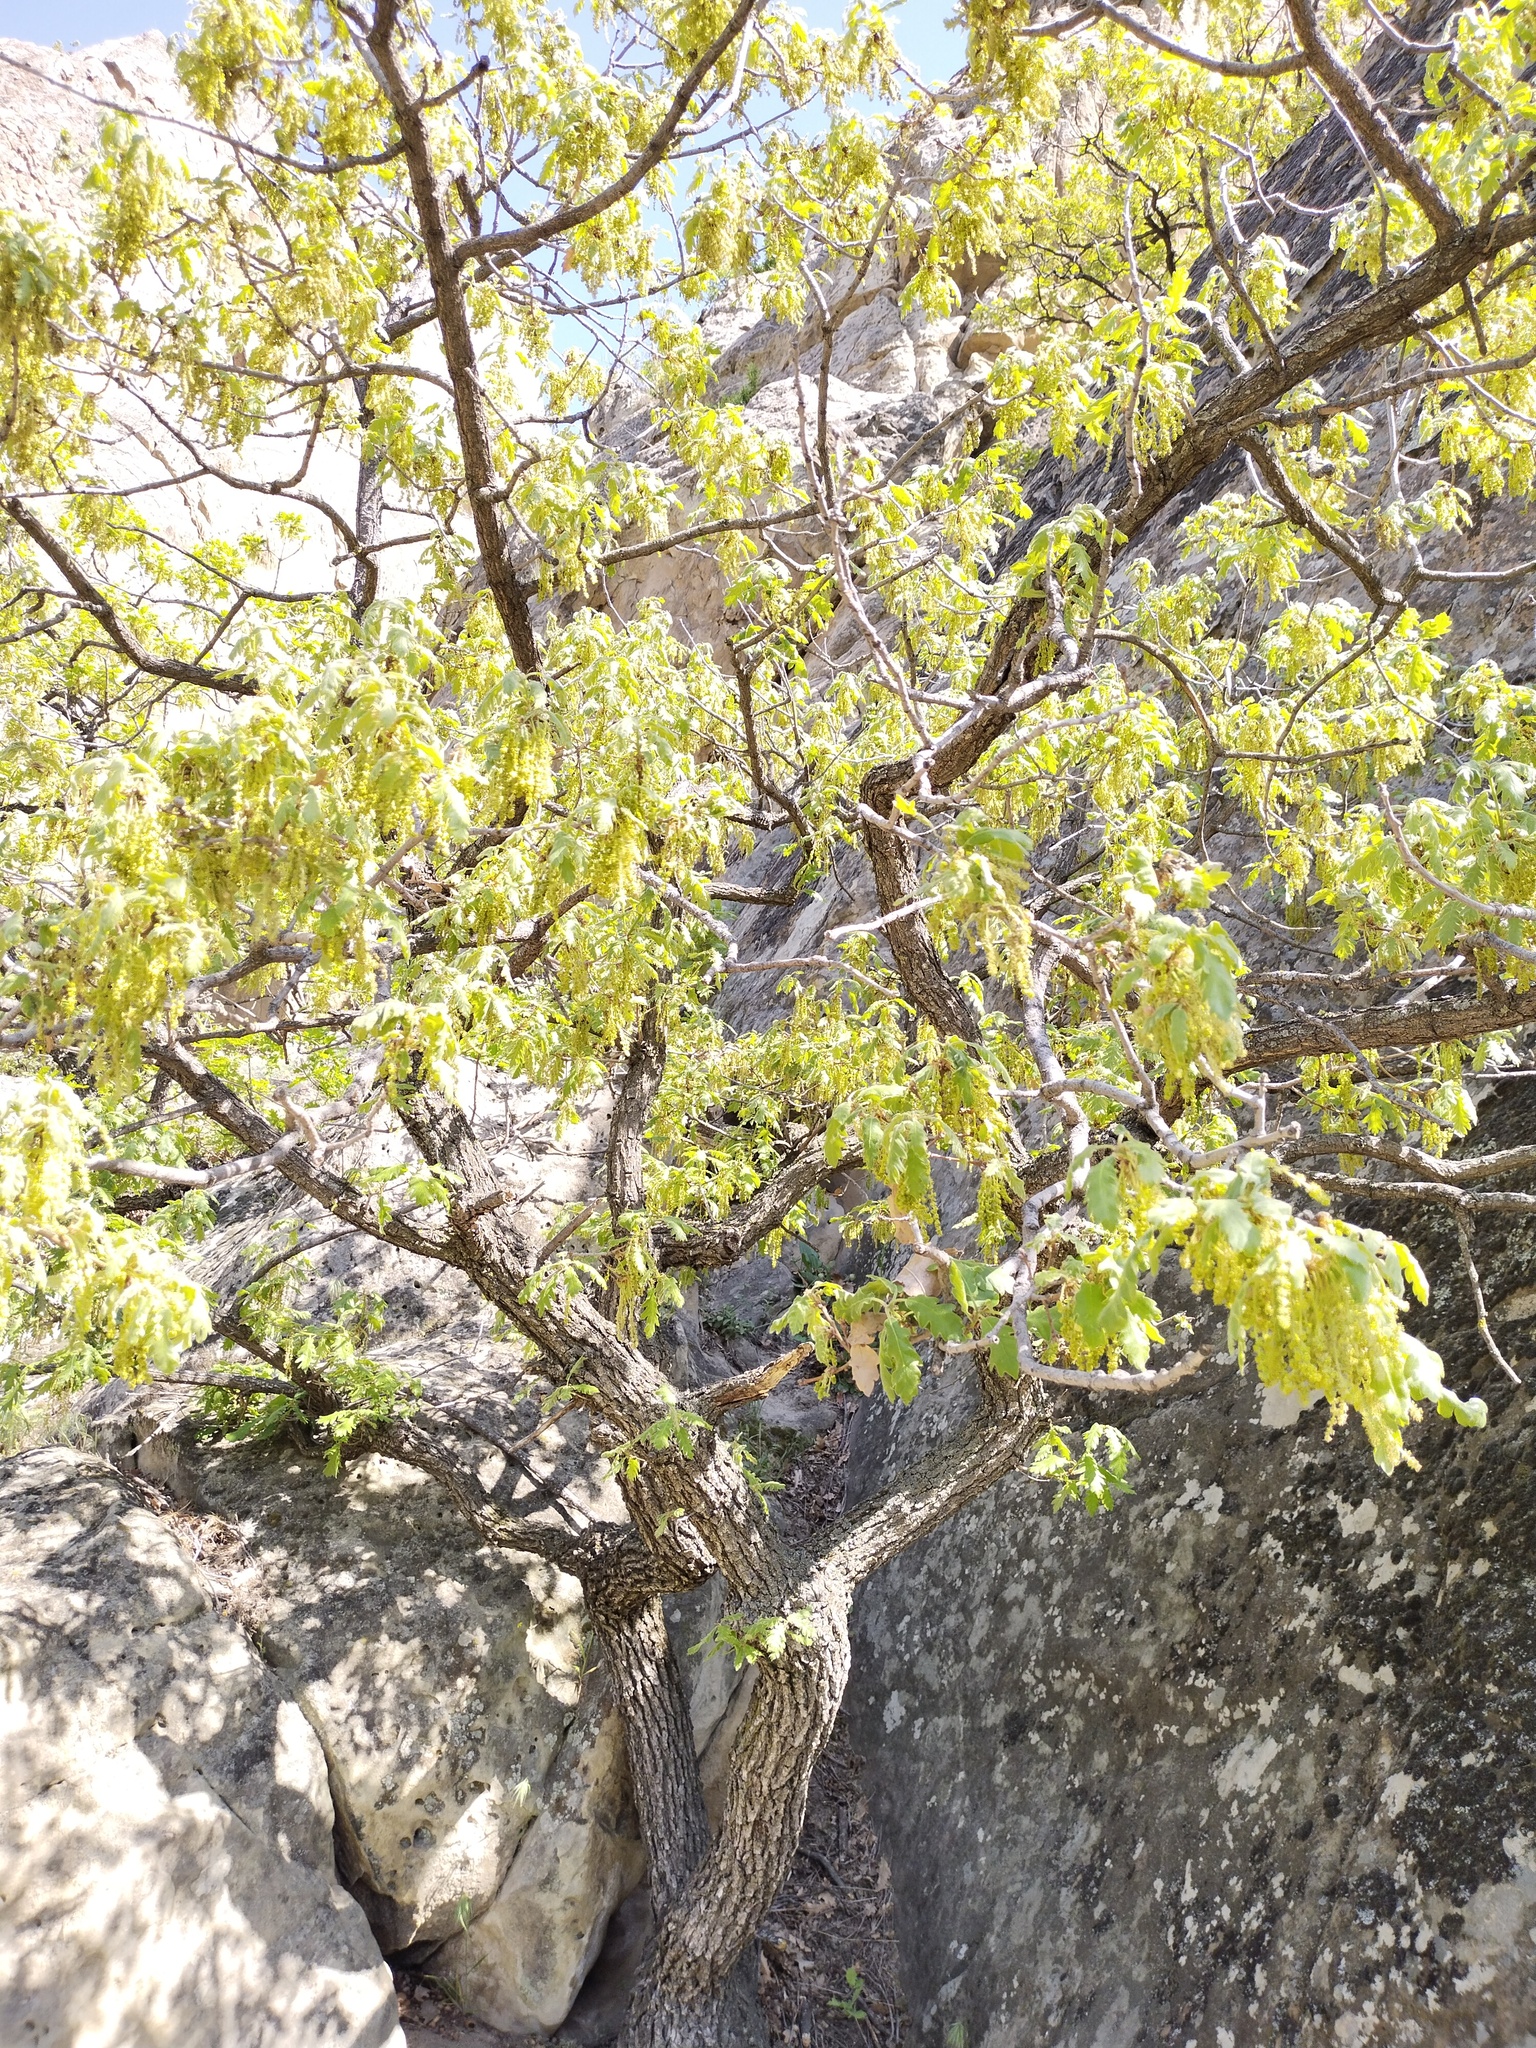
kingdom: Plantae
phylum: Tracheophyta
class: Magnoliopsida
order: Fagales
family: Fagaceae
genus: Quercus
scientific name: Quercus pubescens
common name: Downy oak
